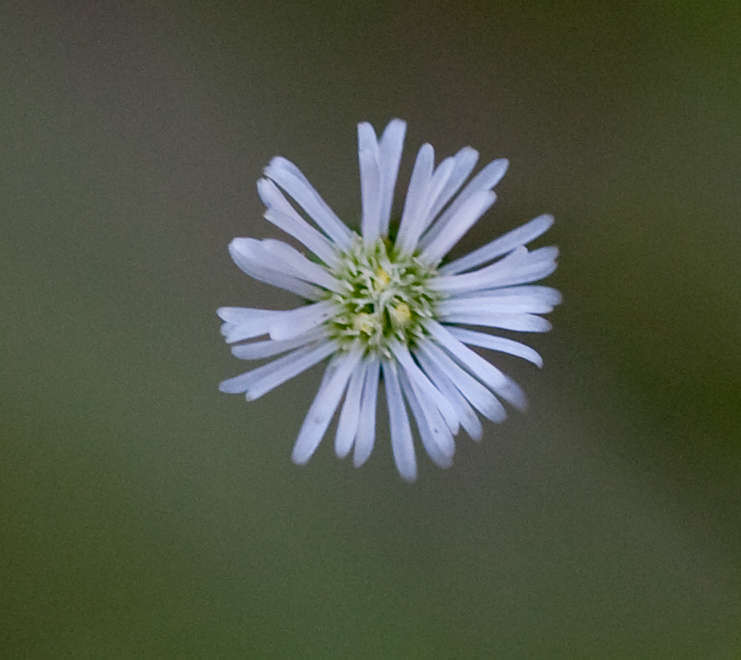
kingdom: Plantae
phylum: Tracheophyta
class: Magnoliopsida
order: Asterales
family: Asteraceae
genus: Lagenophora
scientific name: Lagenophora sublyrata ter
